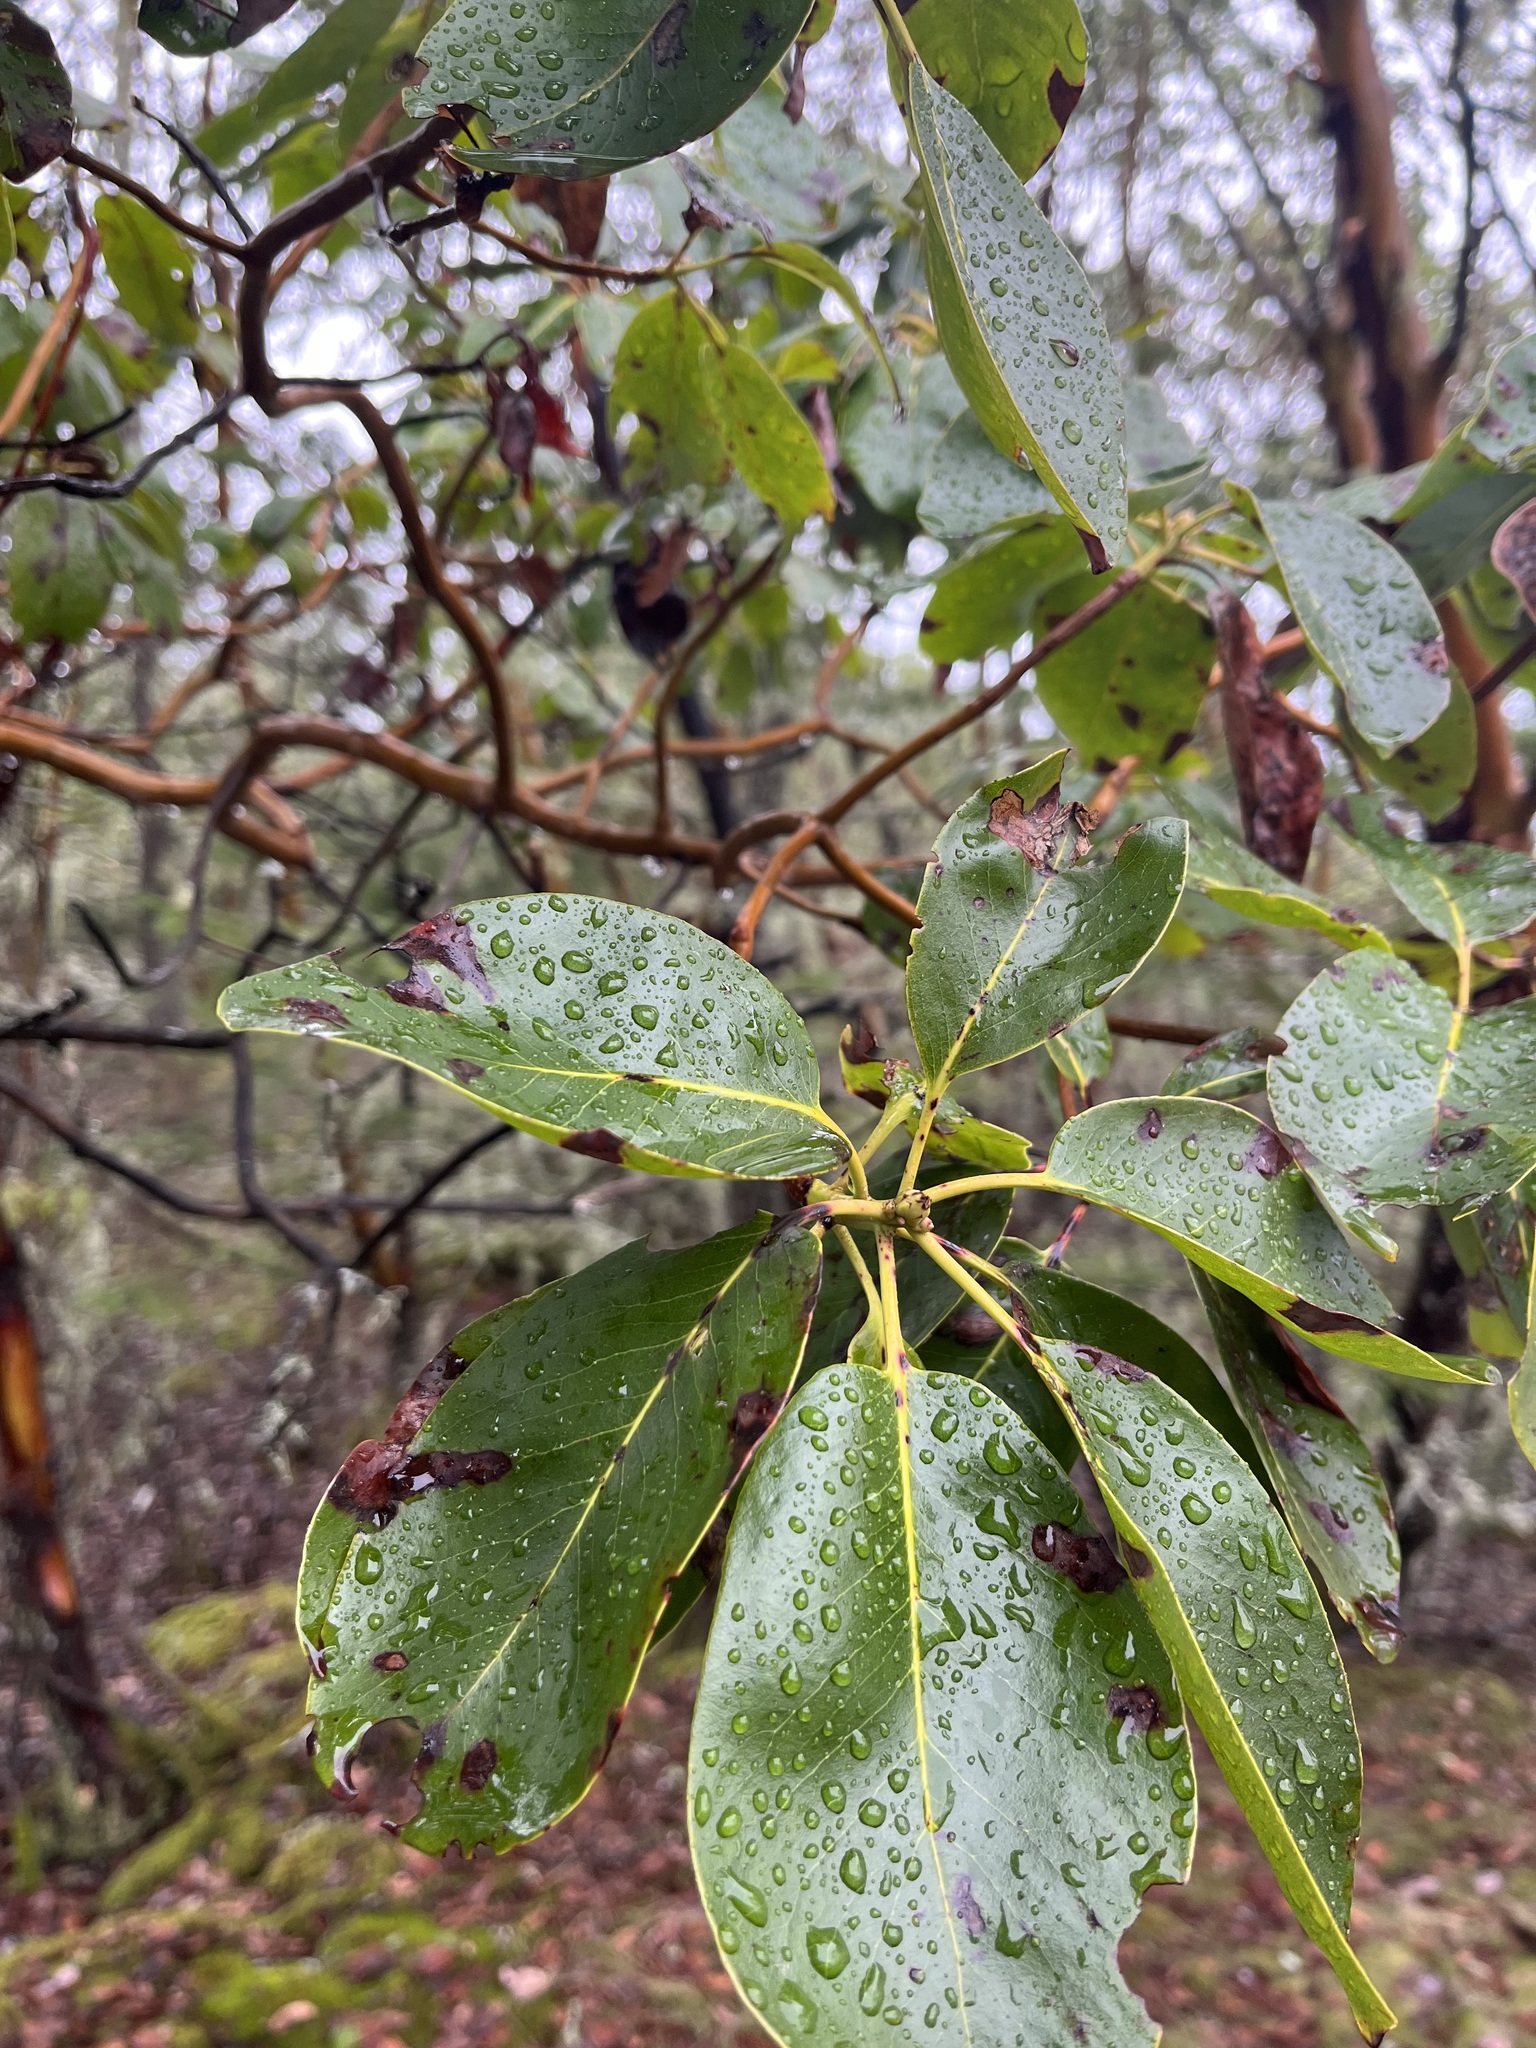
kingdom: Plantae
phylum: Tracheophyta
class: Magnoliopsida
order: Ericales
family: Ericaceae
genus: Arbutus
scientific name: Arbutus menziesii
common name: Pacific madrone
